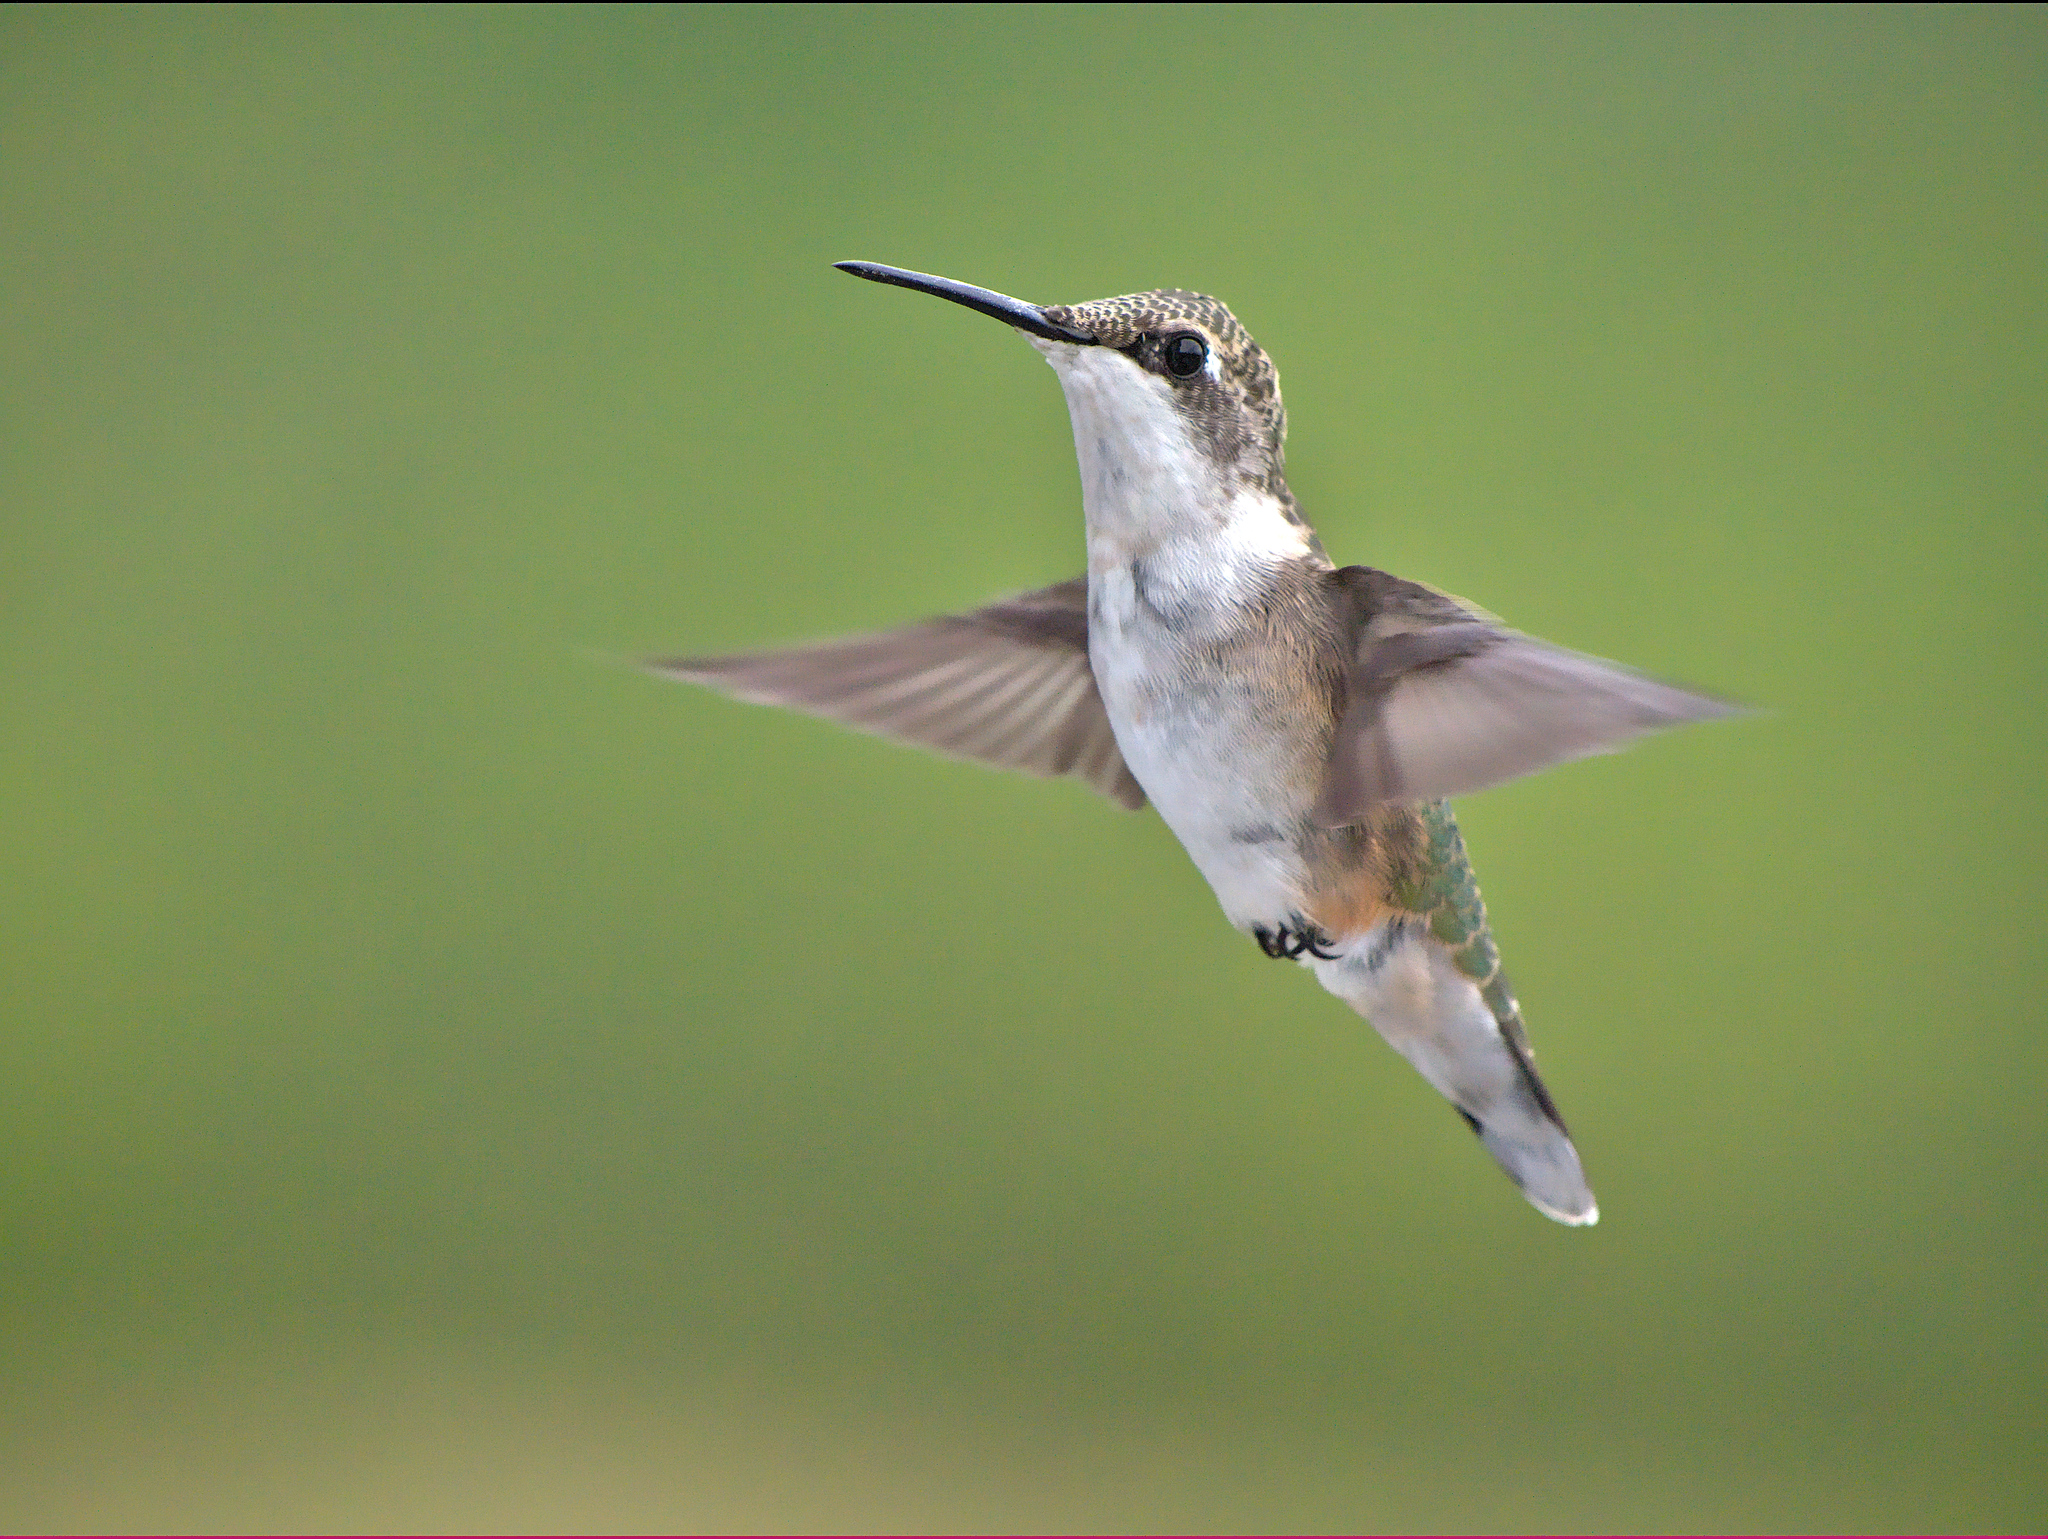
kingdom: Animalia
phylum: Chordata
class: Aves
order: Apodiformes
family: Trochilidae
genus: Archilochus
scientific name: Archilochus colubris
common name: Ruby-throated hummingbird
